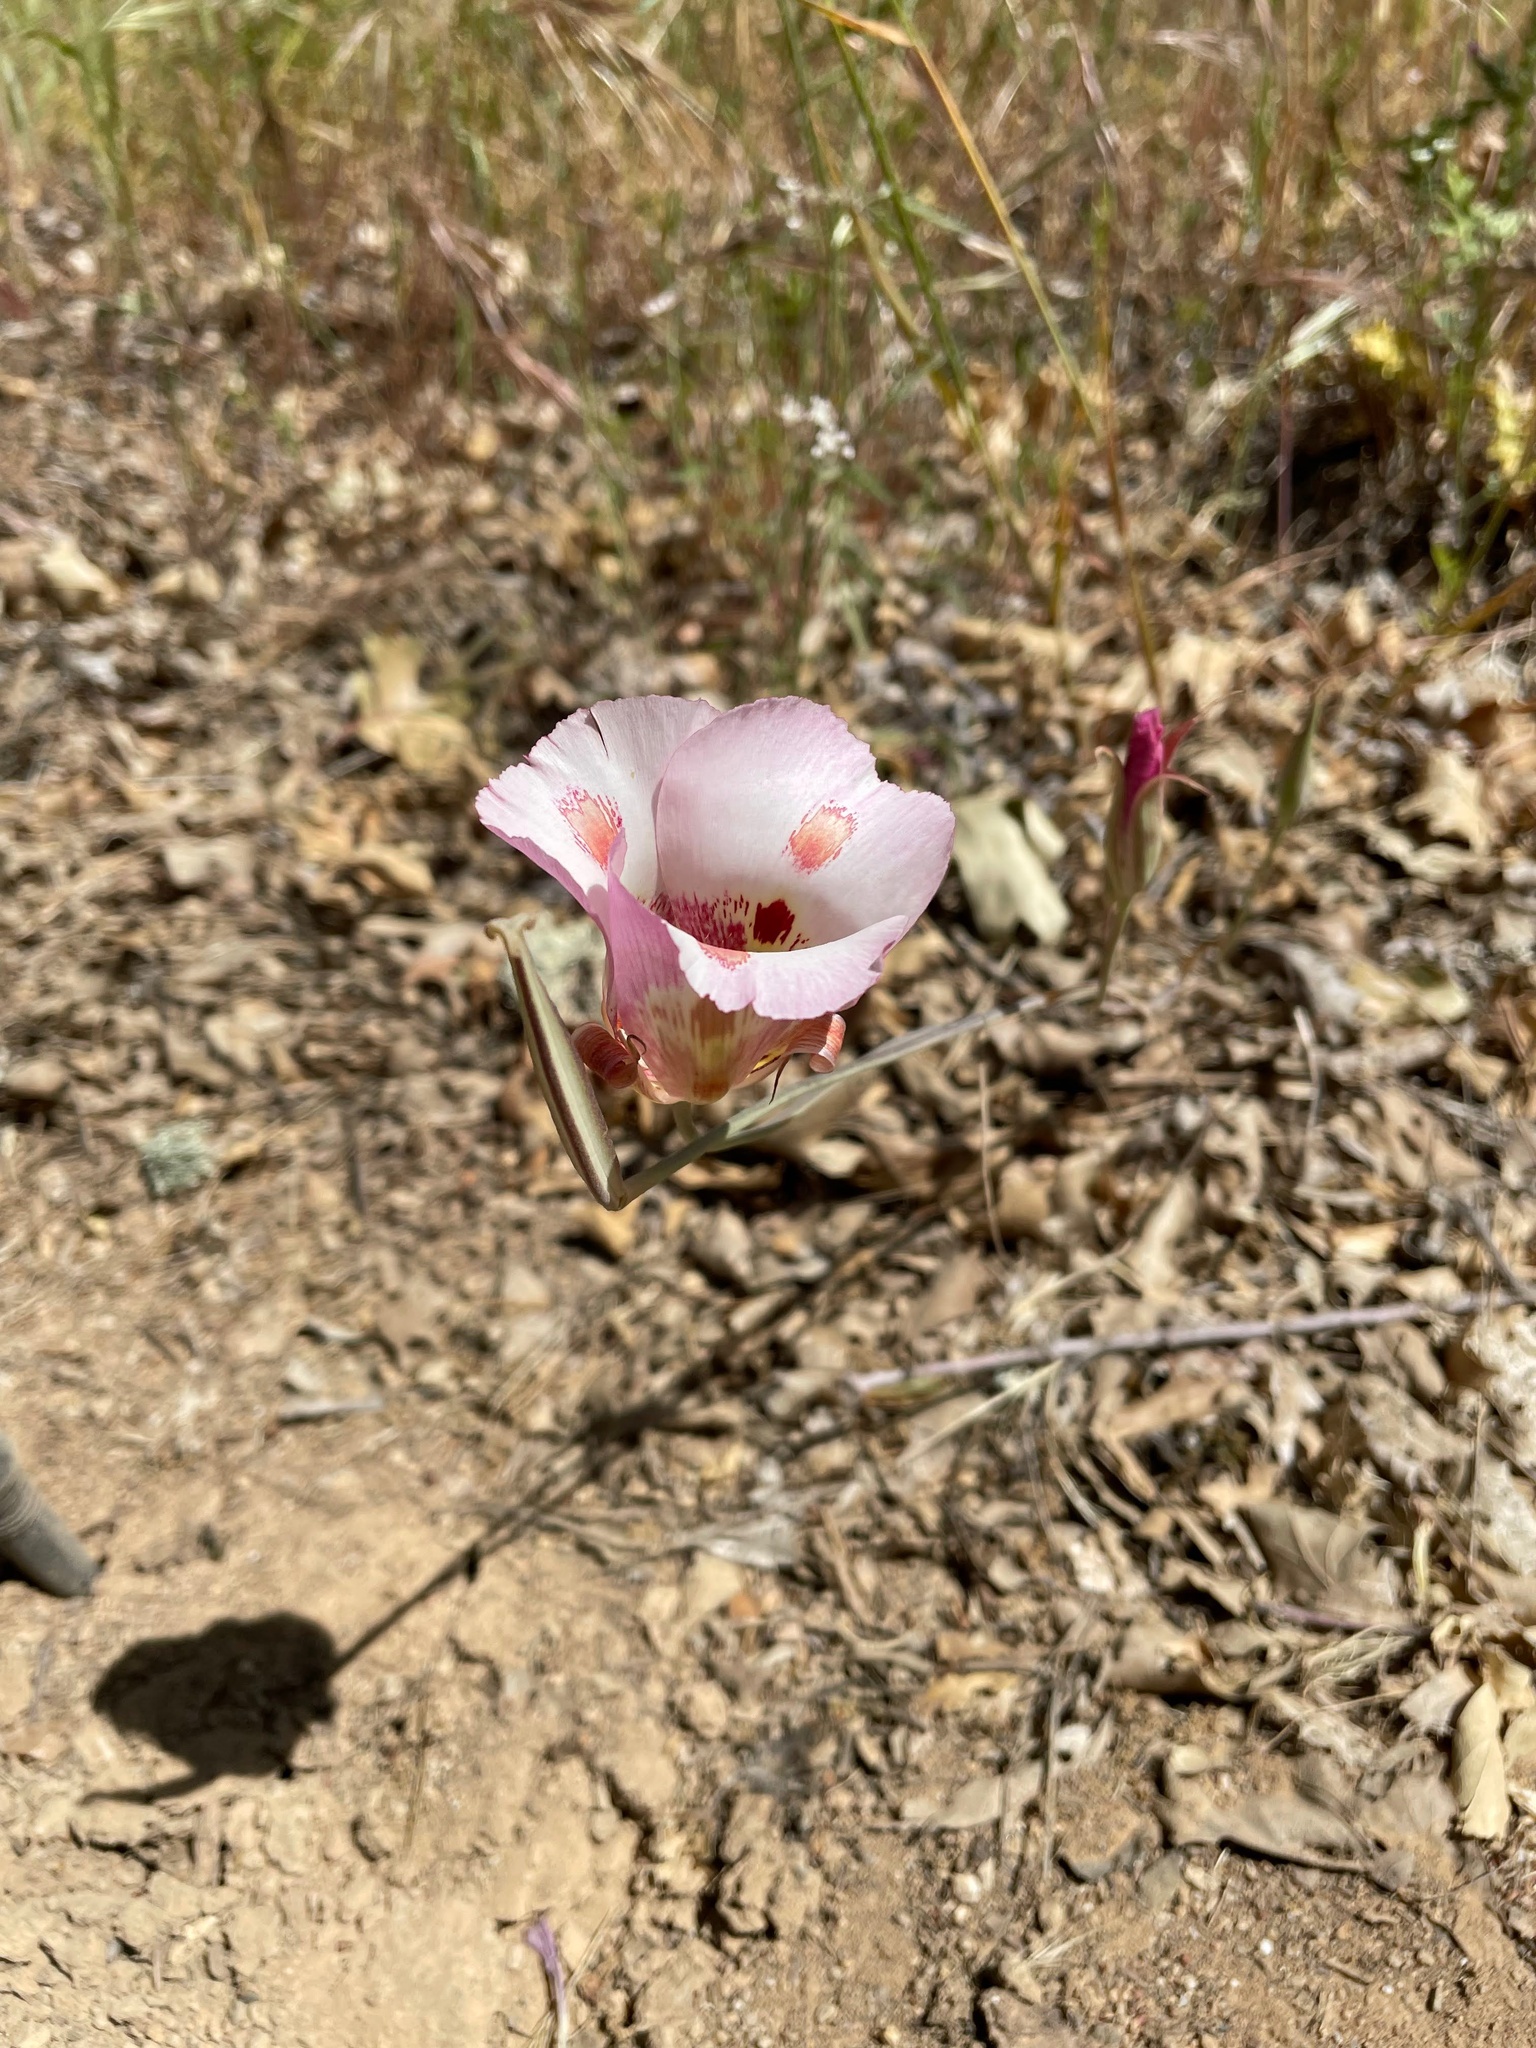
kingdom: Plantae
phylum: Tracheophyta
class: Liliopsida
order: Liliales
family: Liliaceae
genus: Calochortus
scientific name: Calochortus venustus
